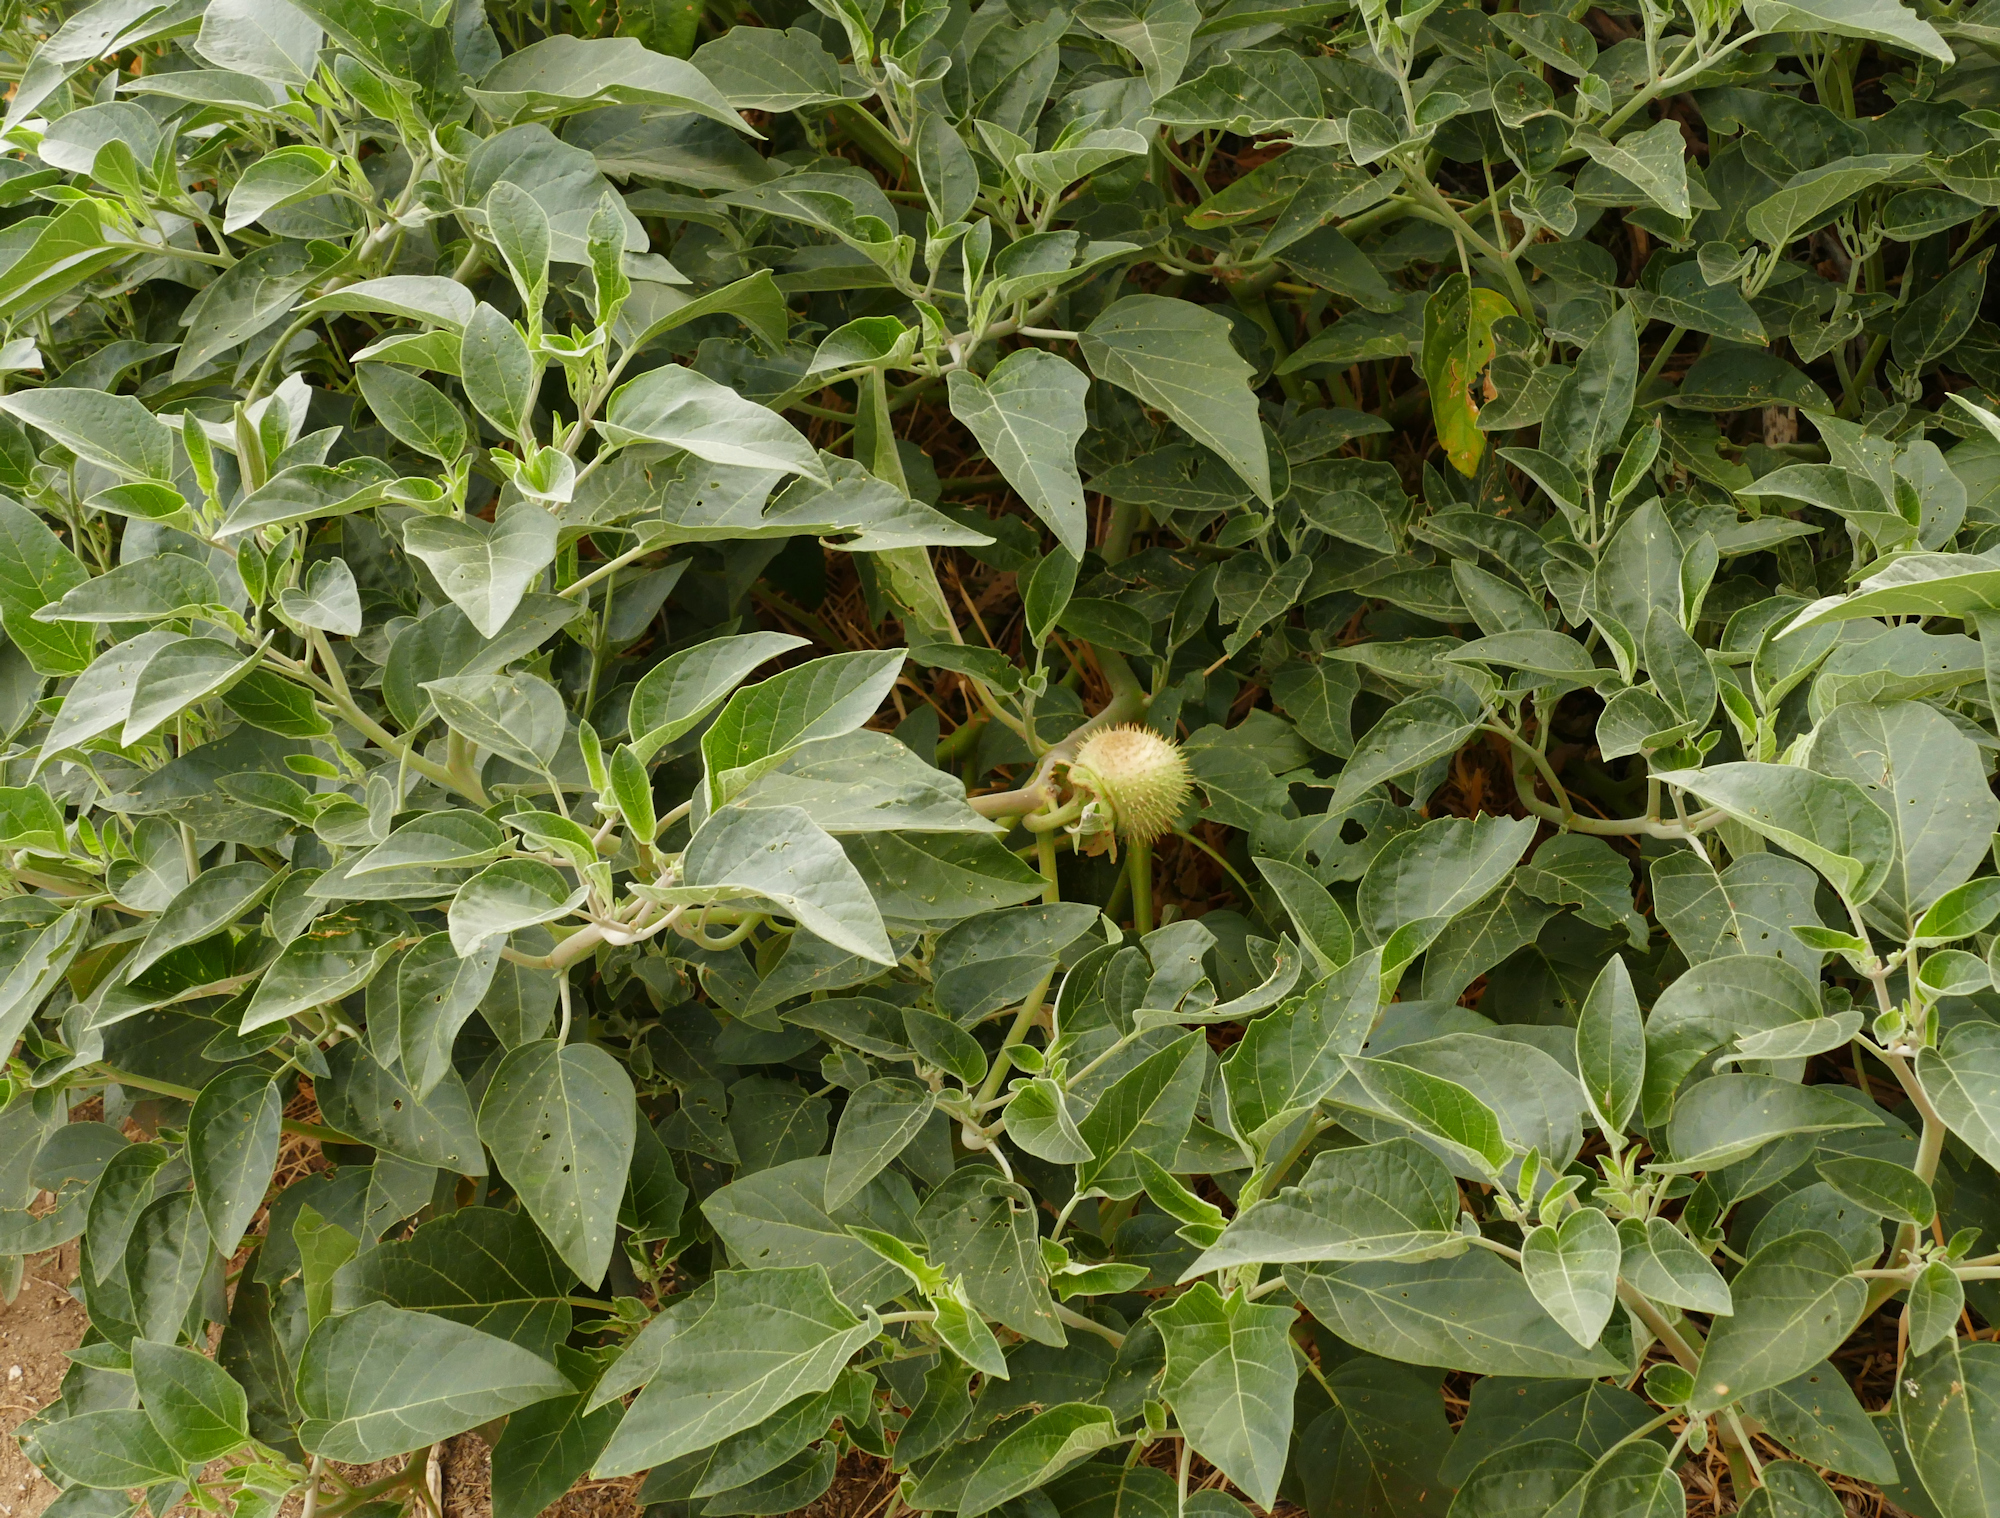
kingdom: Plantae
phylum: Tracheophyta
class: Magnoliopsida
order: Solanales
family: Solanaceae
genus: Datura
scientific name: Datura wrightii
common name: Sacred thorn-apple
